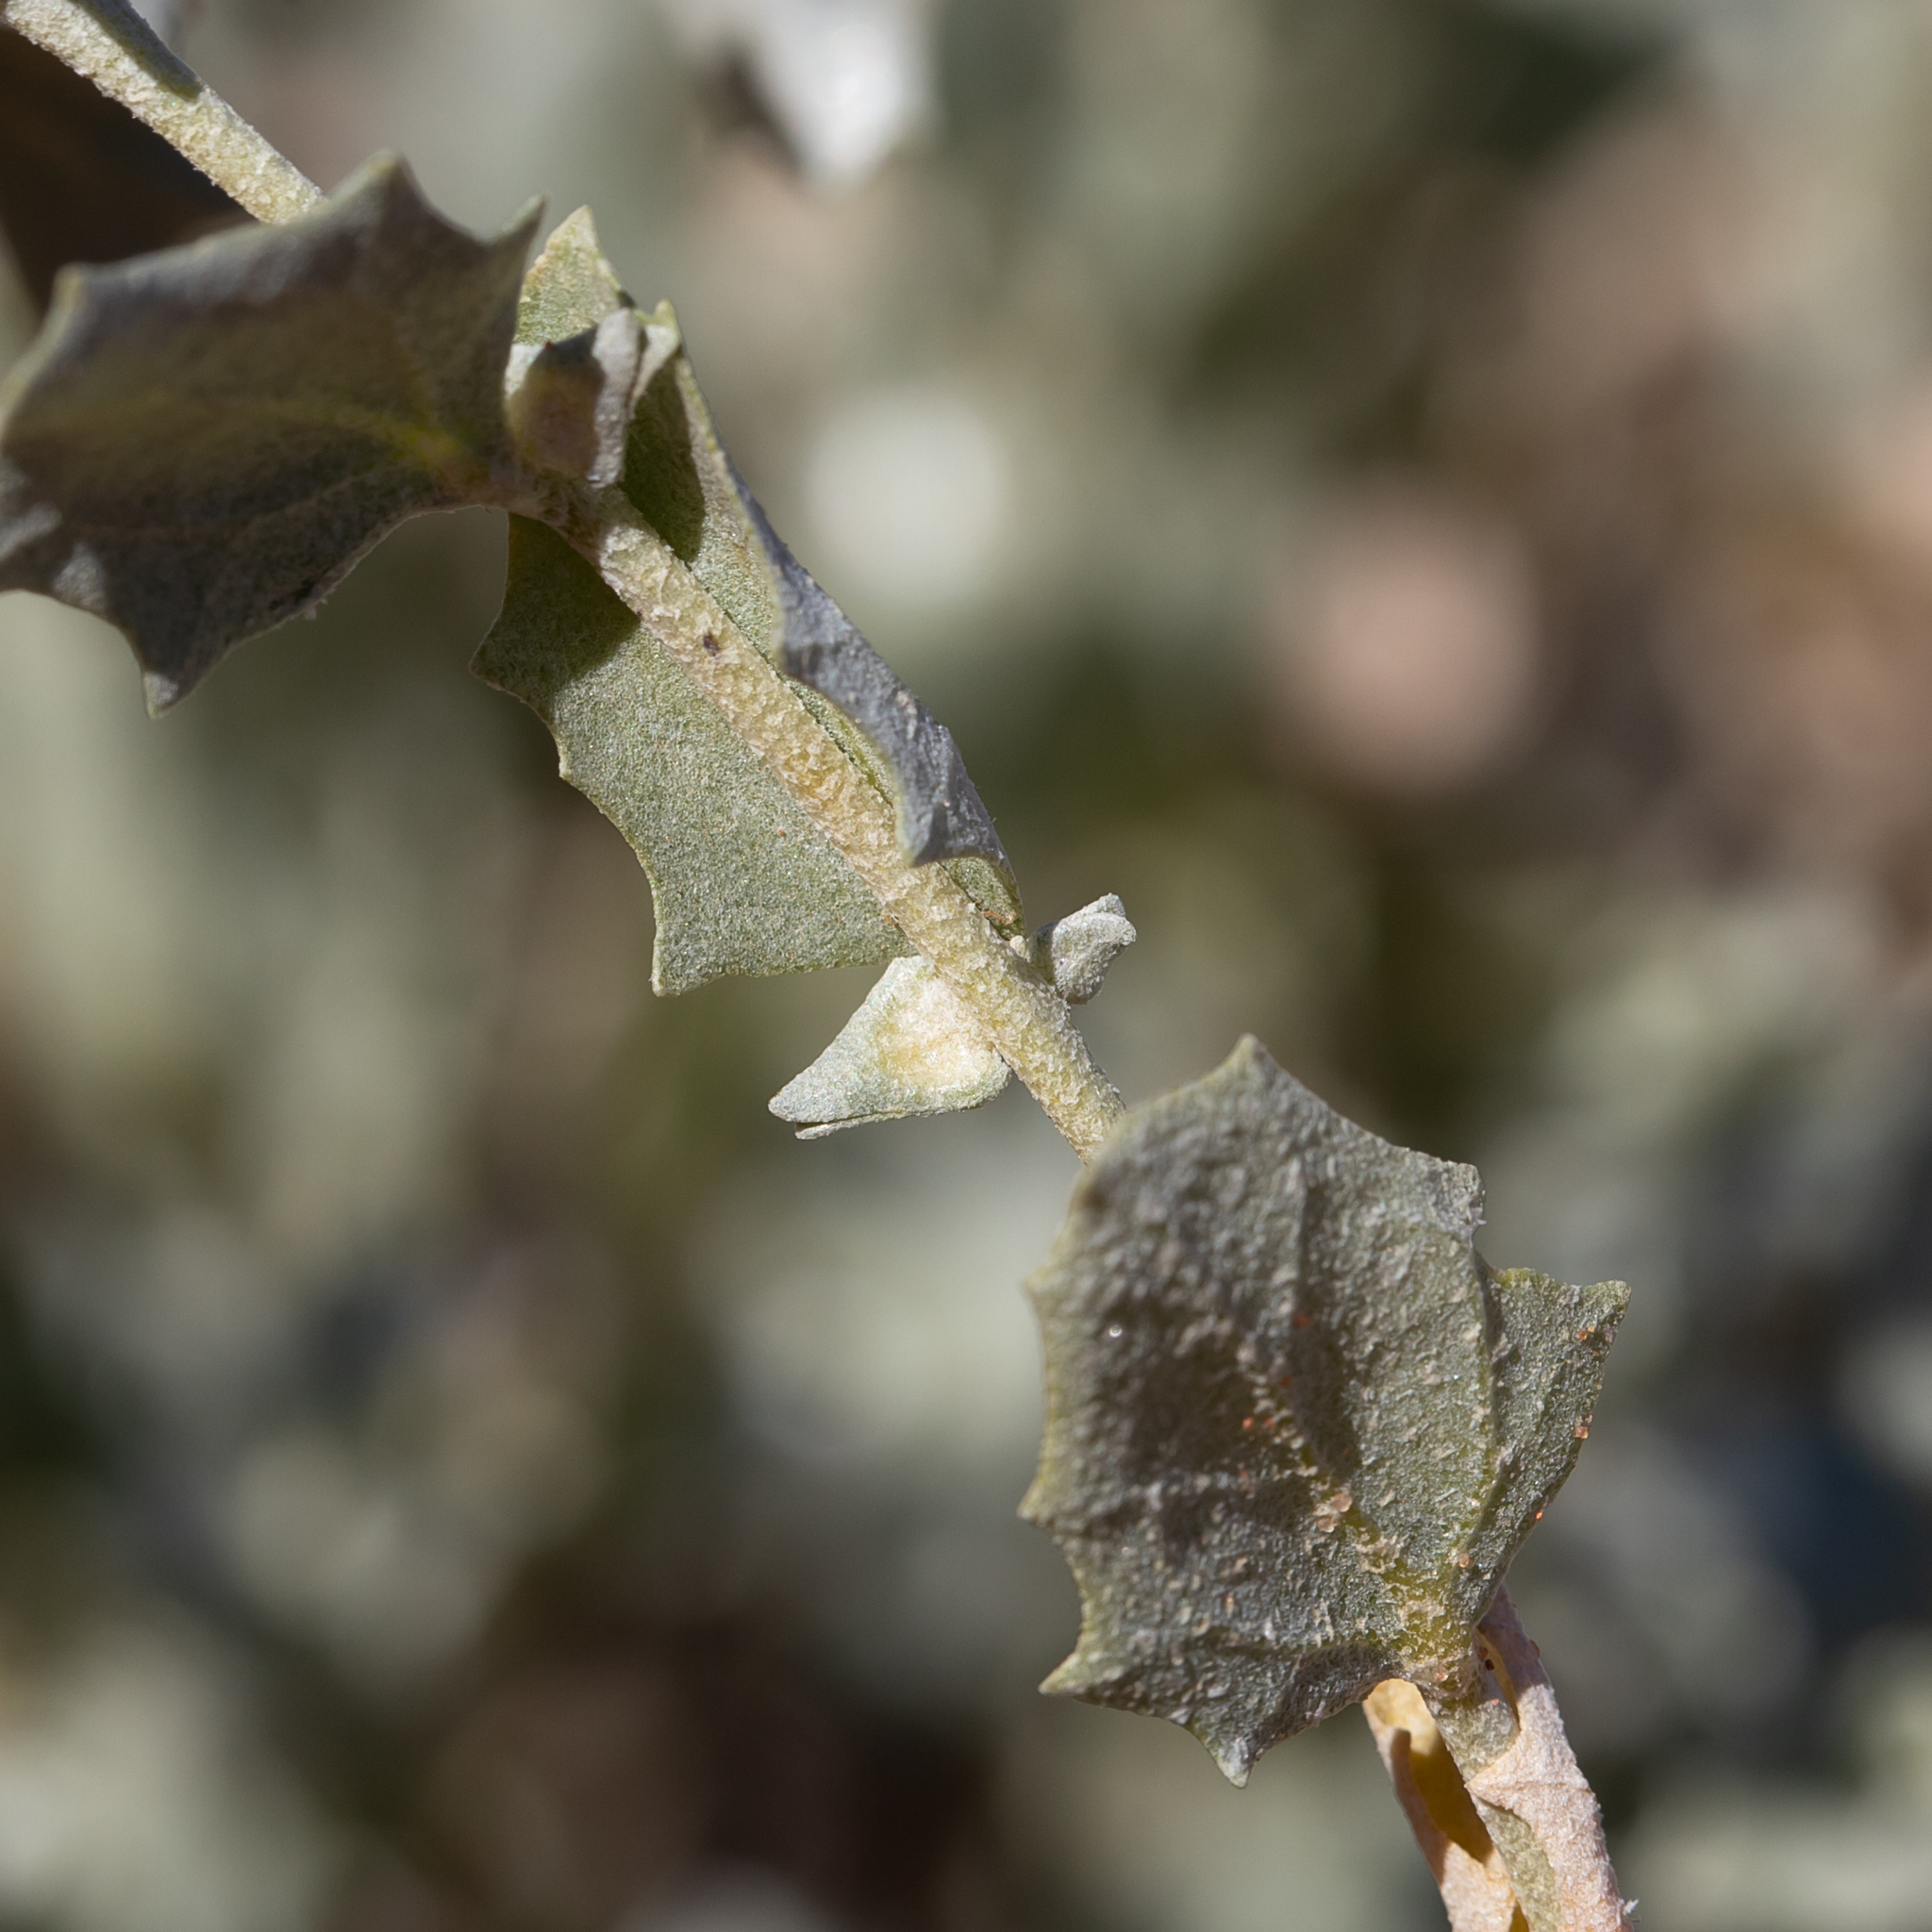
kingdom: Plantae
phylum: Tracheophyta
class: Magnoliopsida
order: Caryophyllales
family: Amaranthaceae
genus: Atriplex
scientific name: Atriplex velutinella
